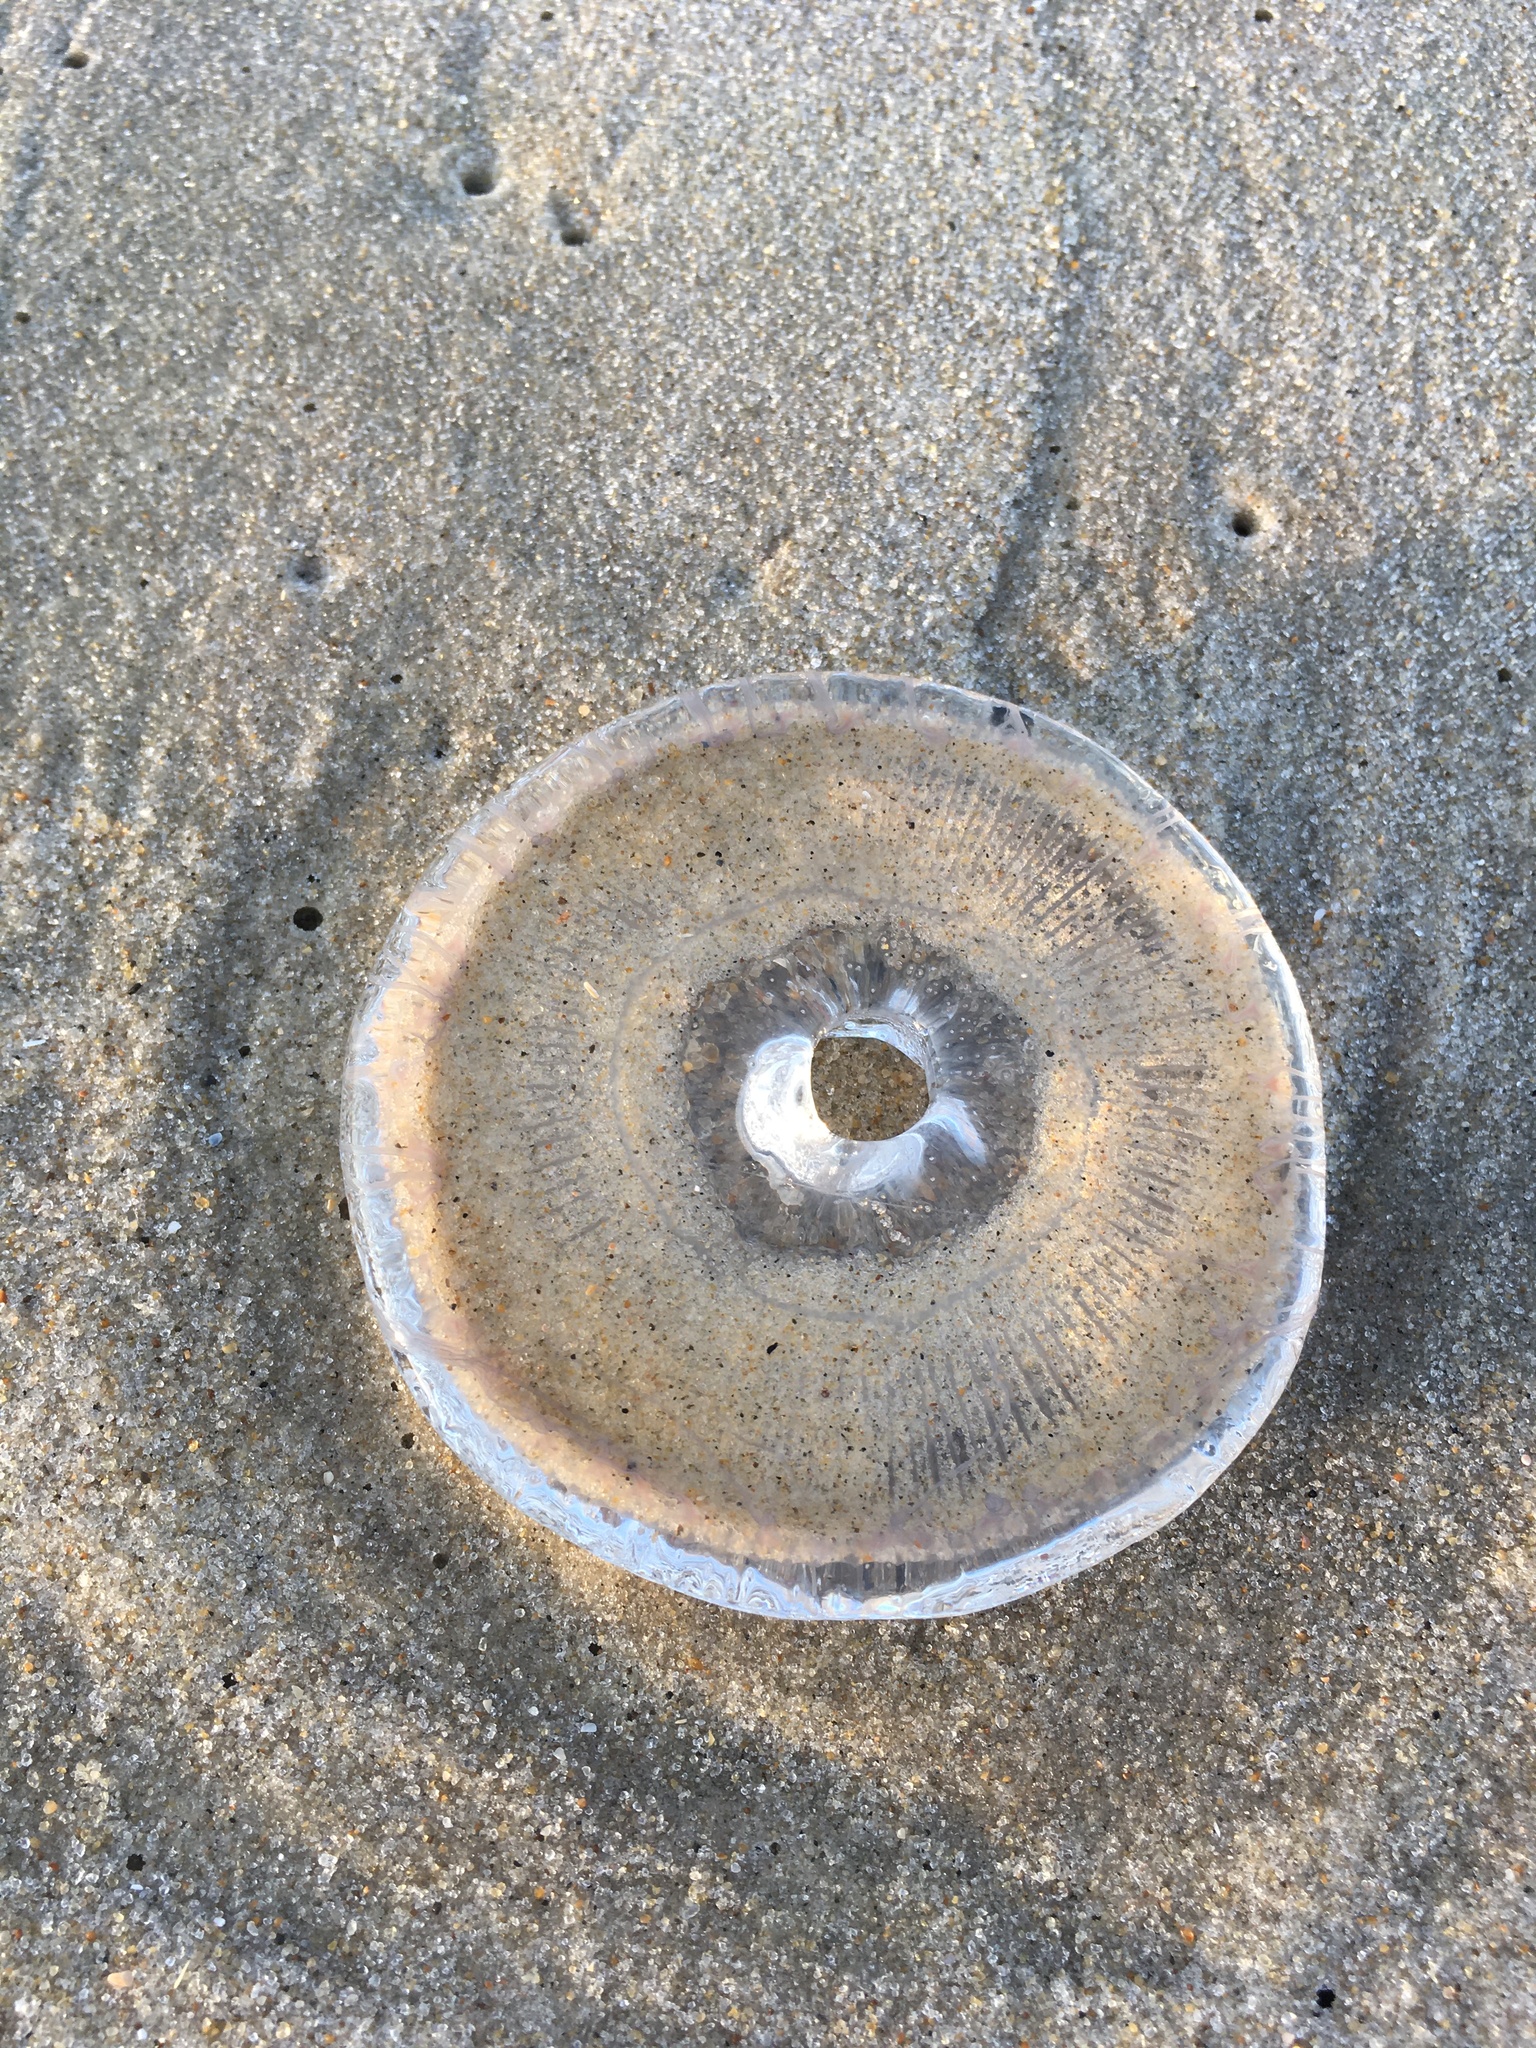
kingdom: Animalia
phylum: Cnidaria
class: Hydrozoa
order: Leptothecata
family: Aequoreidae
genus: Rhacostoma
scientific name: Rhacostoma atlanticum
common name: Lined water jelly
